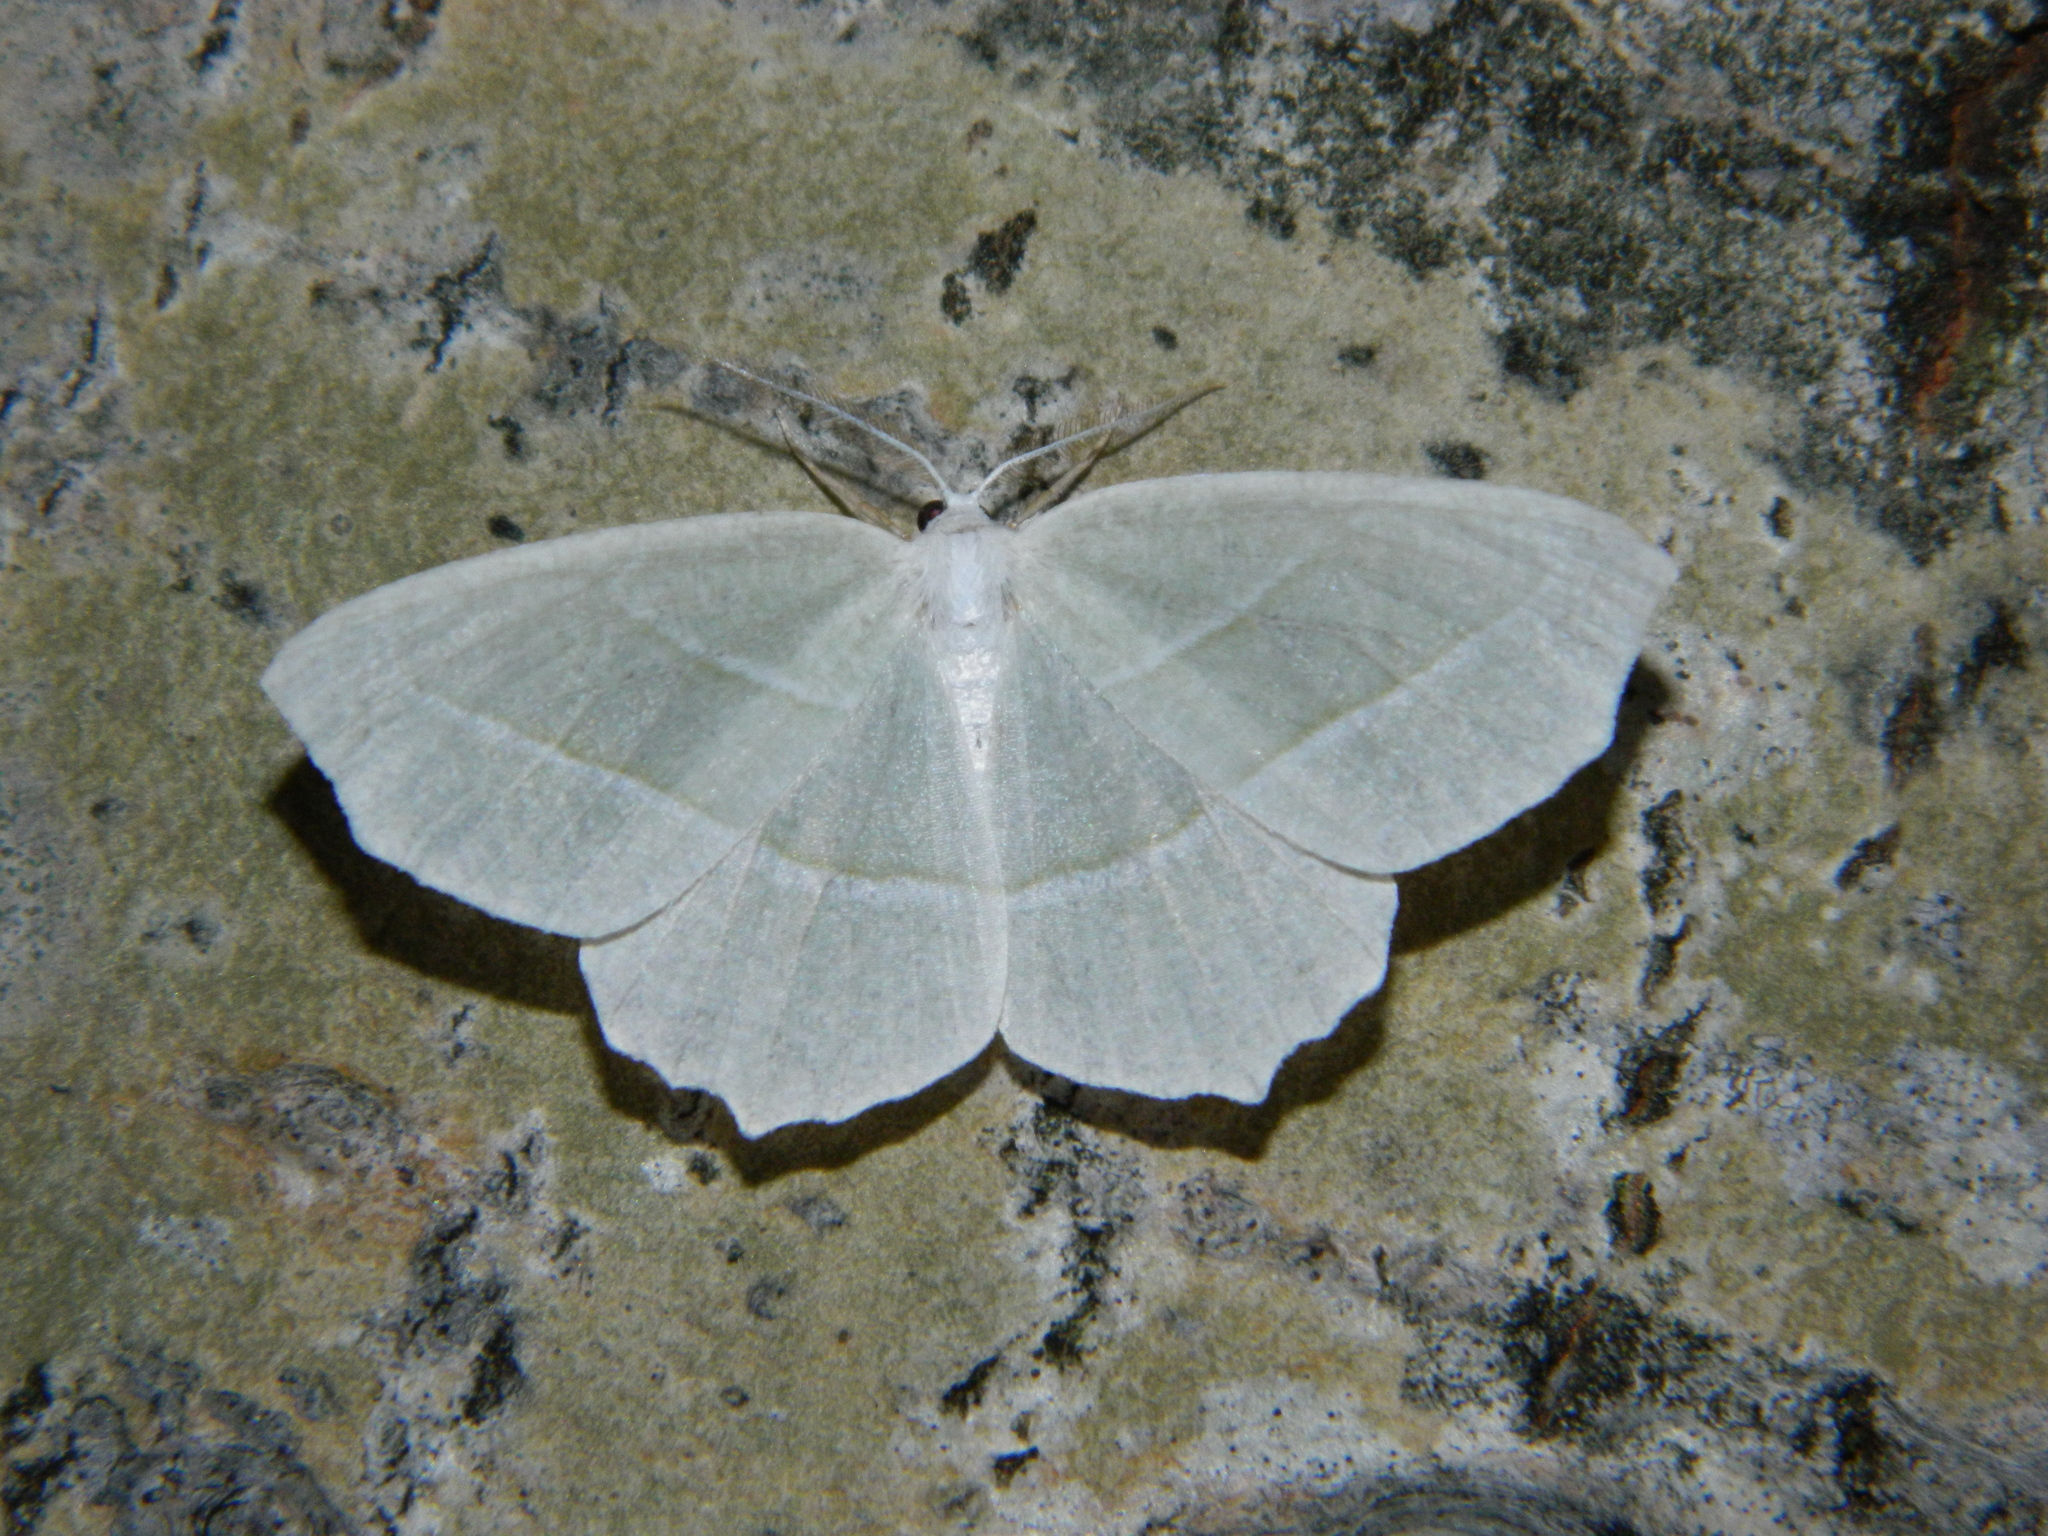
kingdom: Animalia
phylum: Arthropoda
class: Insecta
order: Lepidoptera
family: Geometridae
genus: Campaea
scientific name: Campaea perlata
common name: Fringed looper
